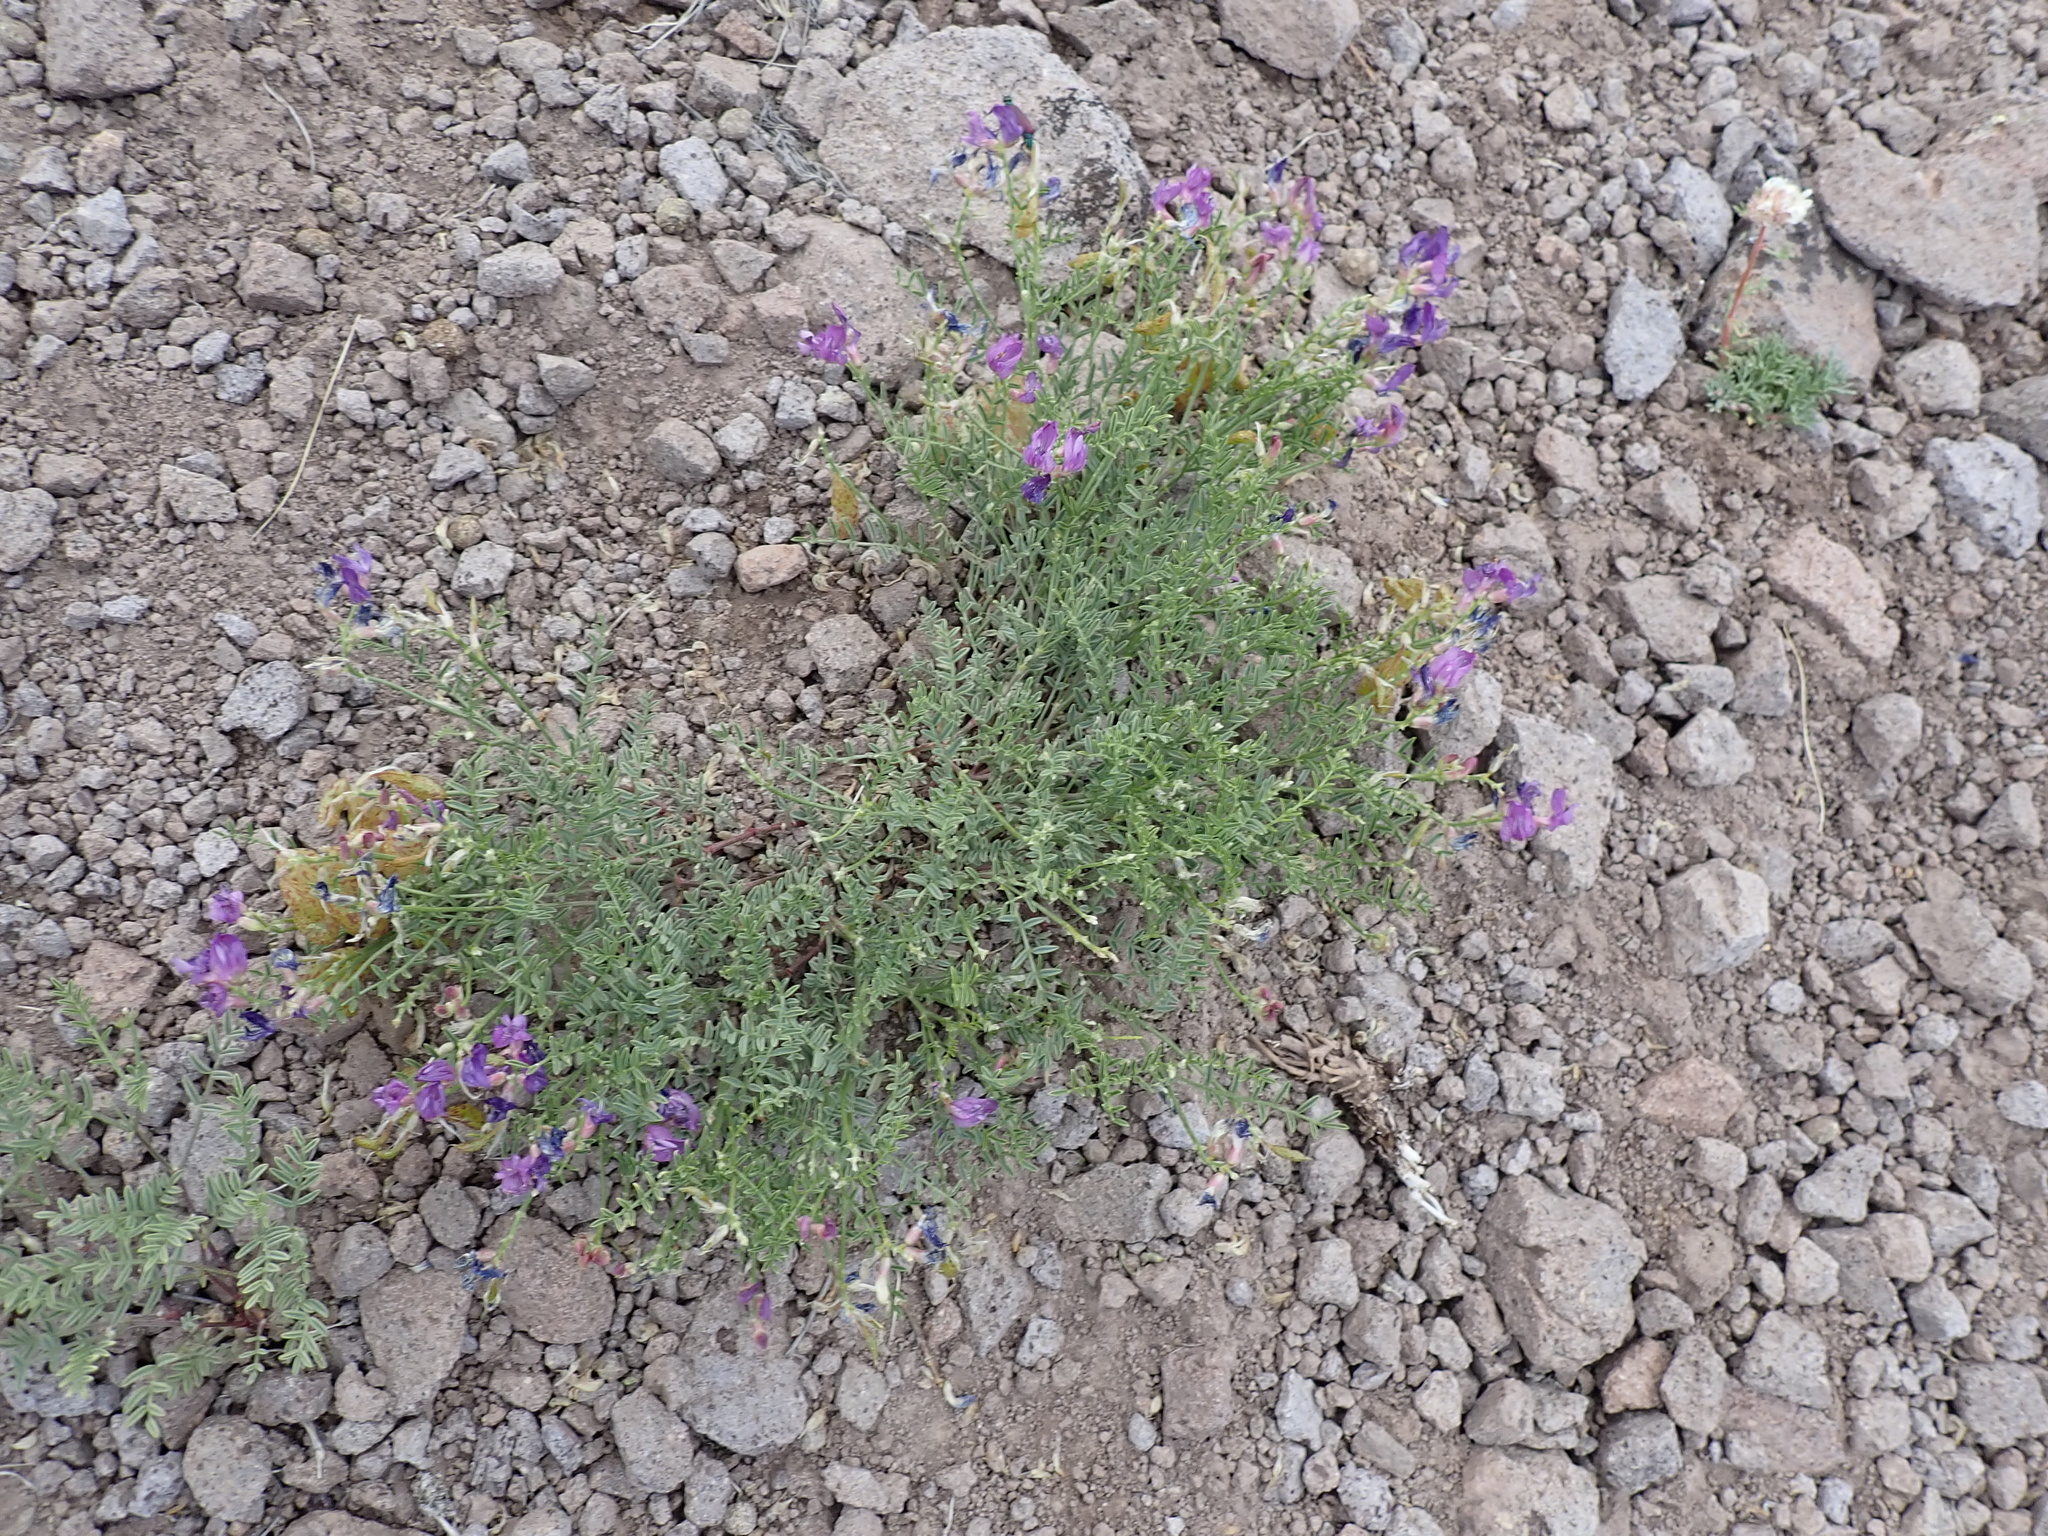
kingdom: Plantae
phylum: Tracheophyta
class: Magnoliopsida
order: Fabales
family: Fabaceae
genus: Astragalus
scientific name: Astragalus whitneyi
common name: Balloonpod milkvetch
